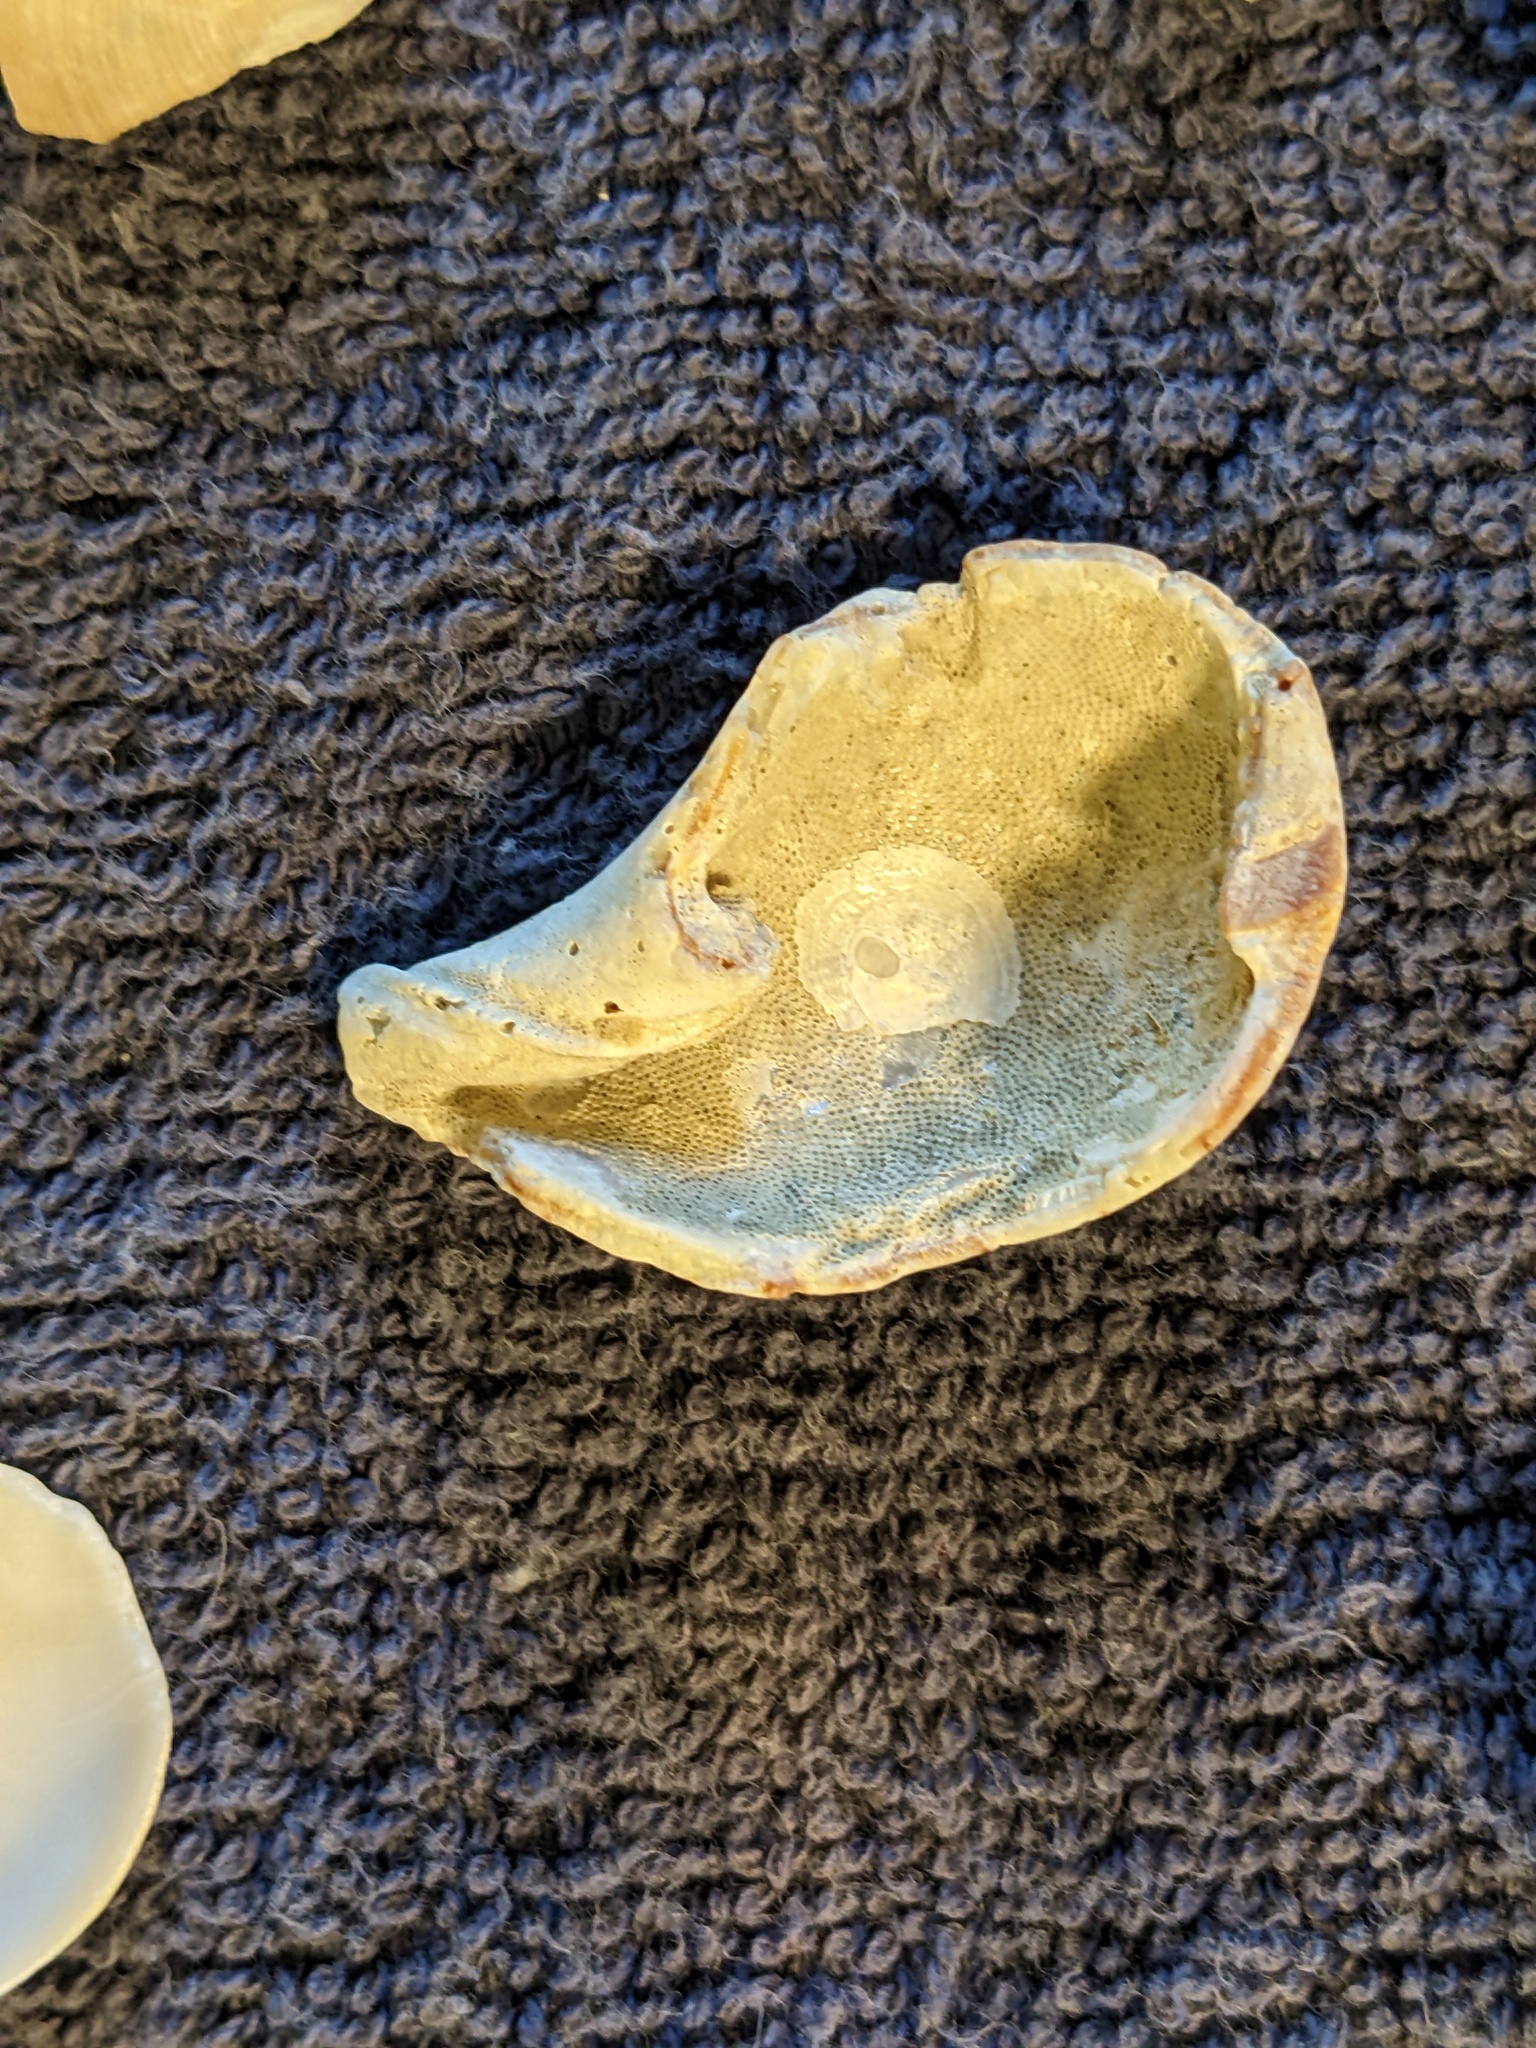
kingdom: Animalia
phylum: Mollusca
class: Gastropoda
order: Neogastropoda
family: Fasciolariidae
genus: Cinctura
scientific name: Cinctura hunteria
